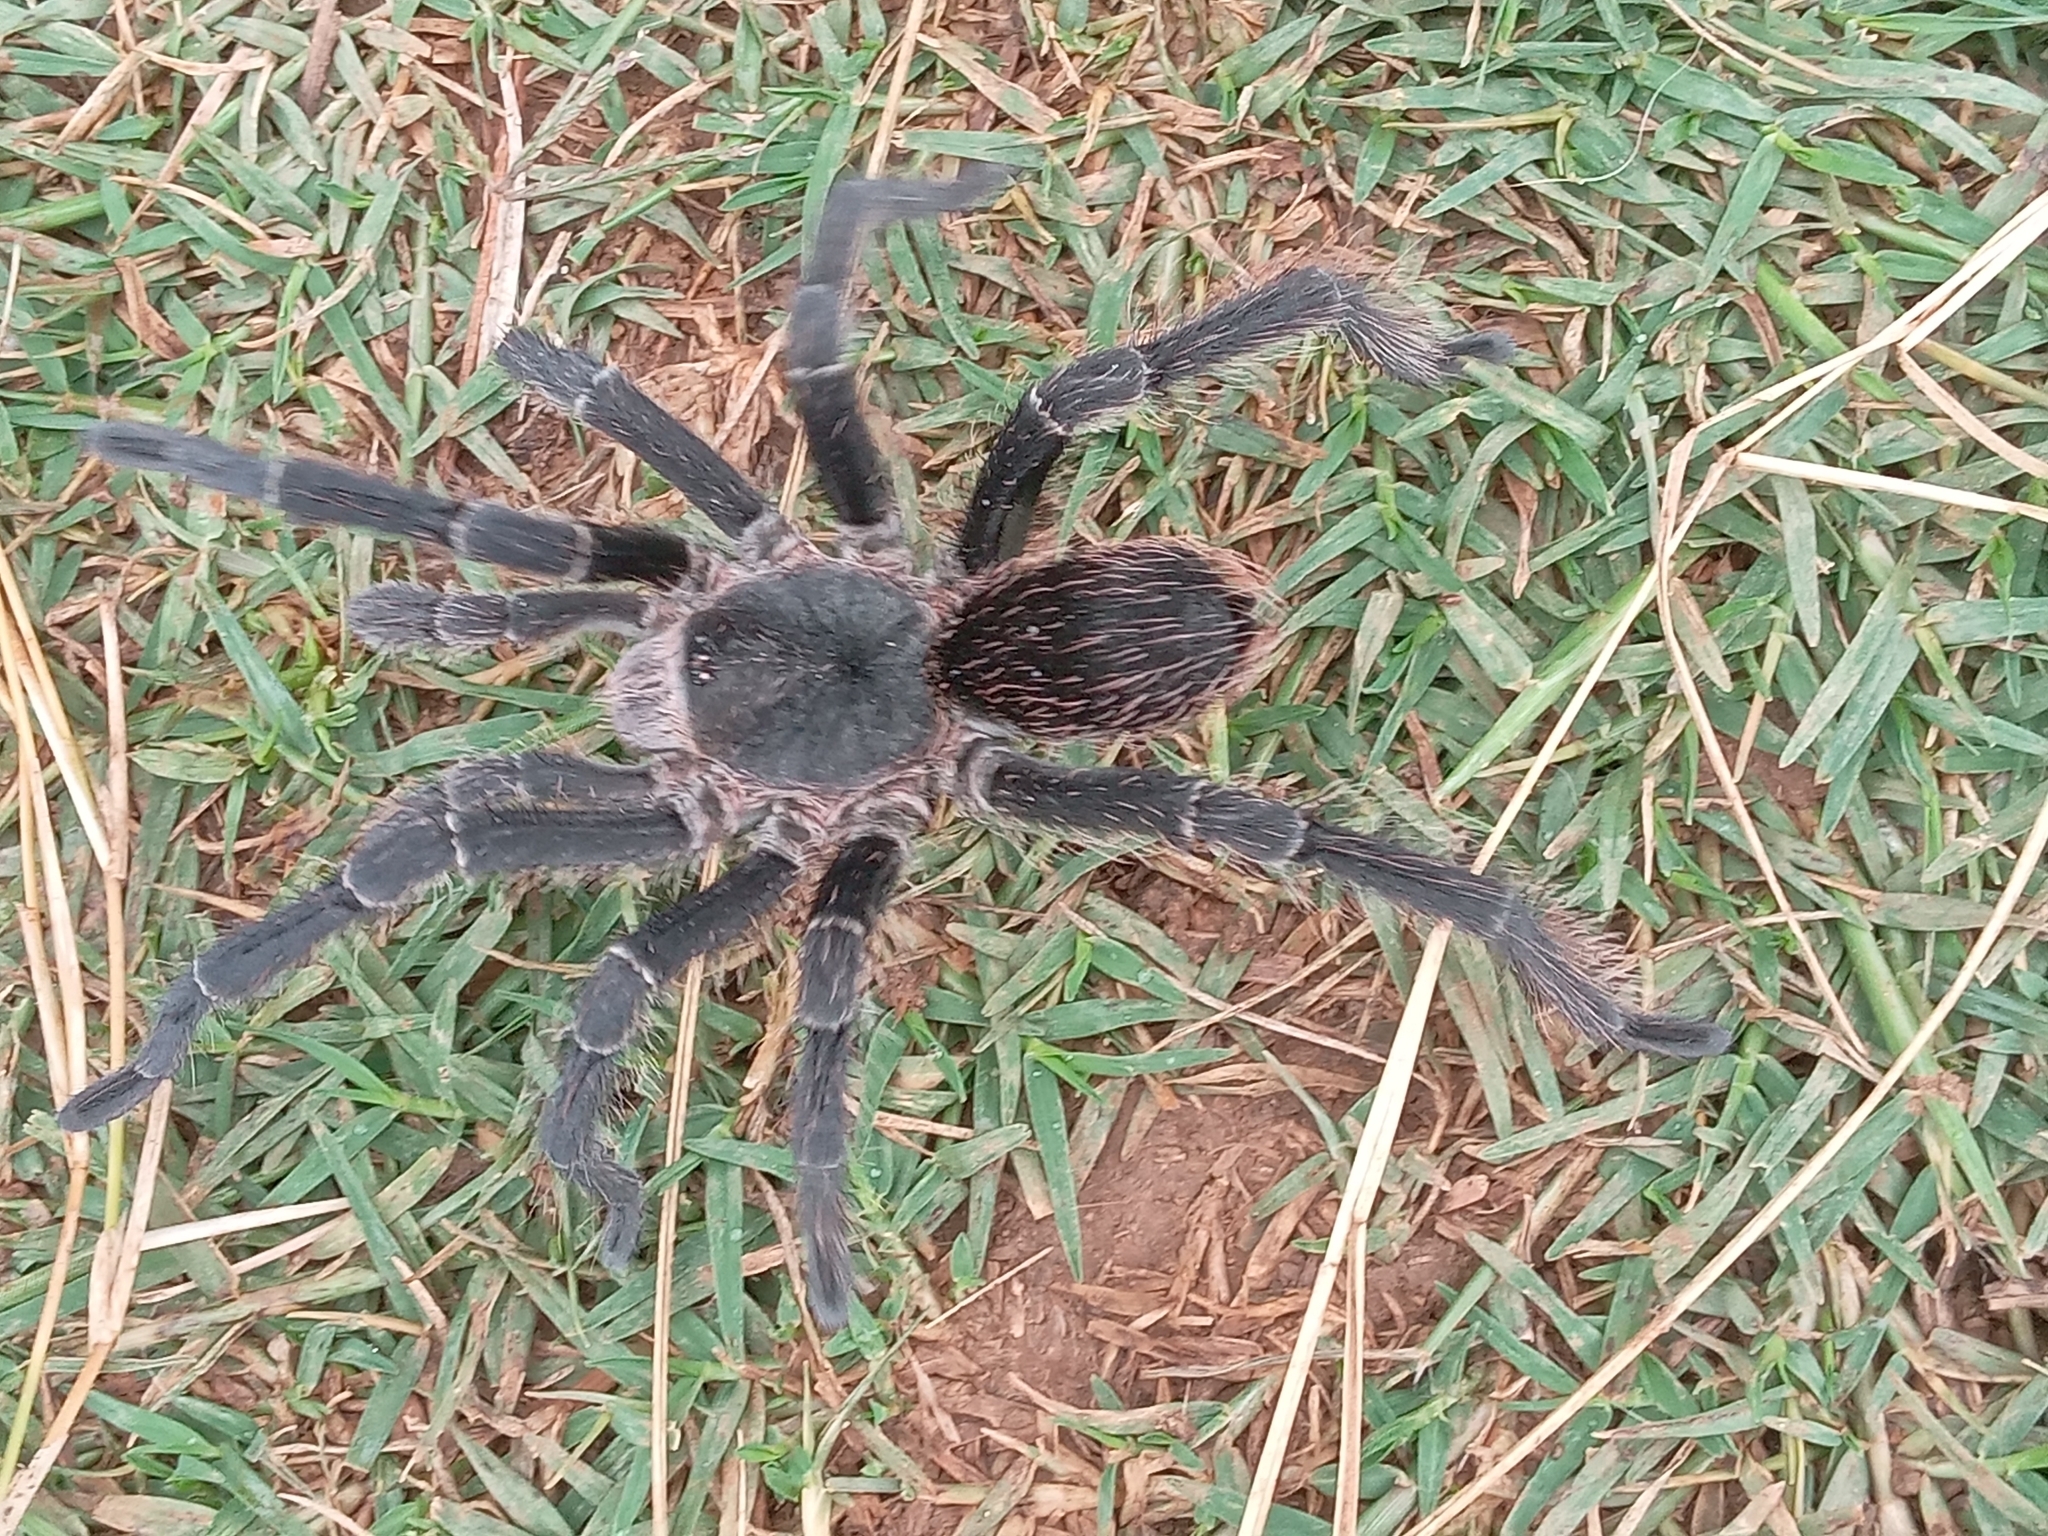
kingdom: Animalia
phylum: Arthropoda
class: Arachnida
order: Araneae
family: Theraphosidae
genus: Eupalaestrus
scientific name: Eupalaestrus weijenberghi
